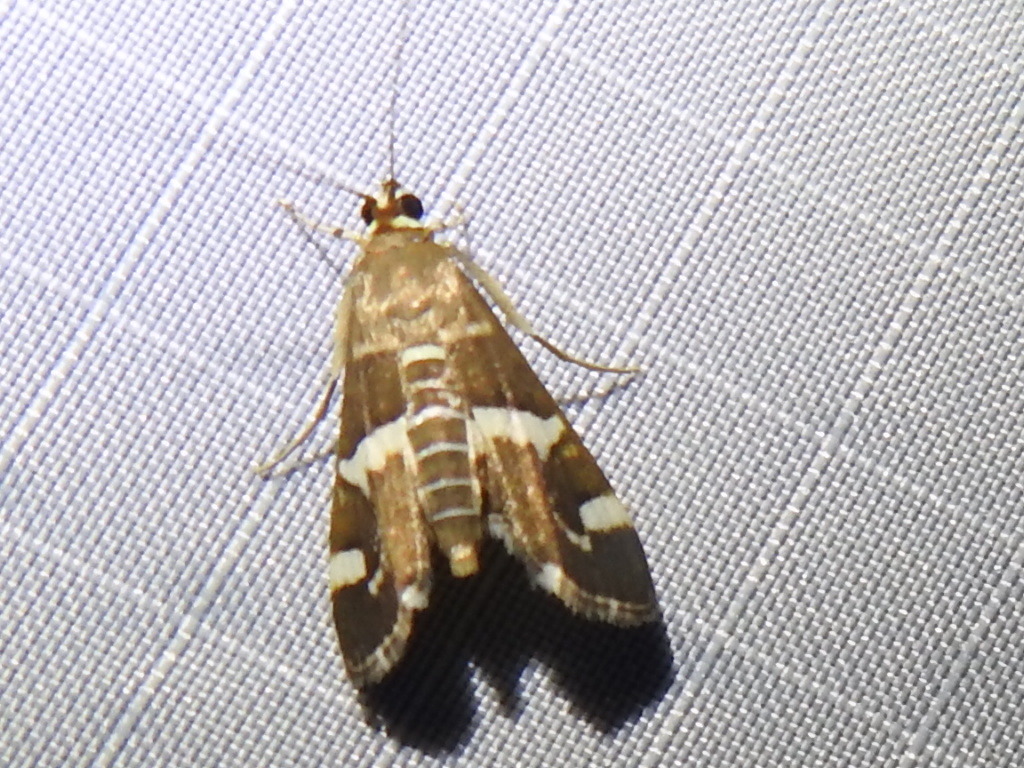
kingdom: Animalia
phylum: Arthropoda
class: Insecta
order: Lepidoptera
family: Crambidae
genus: Spoladea
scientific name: Spoladea recurvalis
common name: Beet webworm moth
